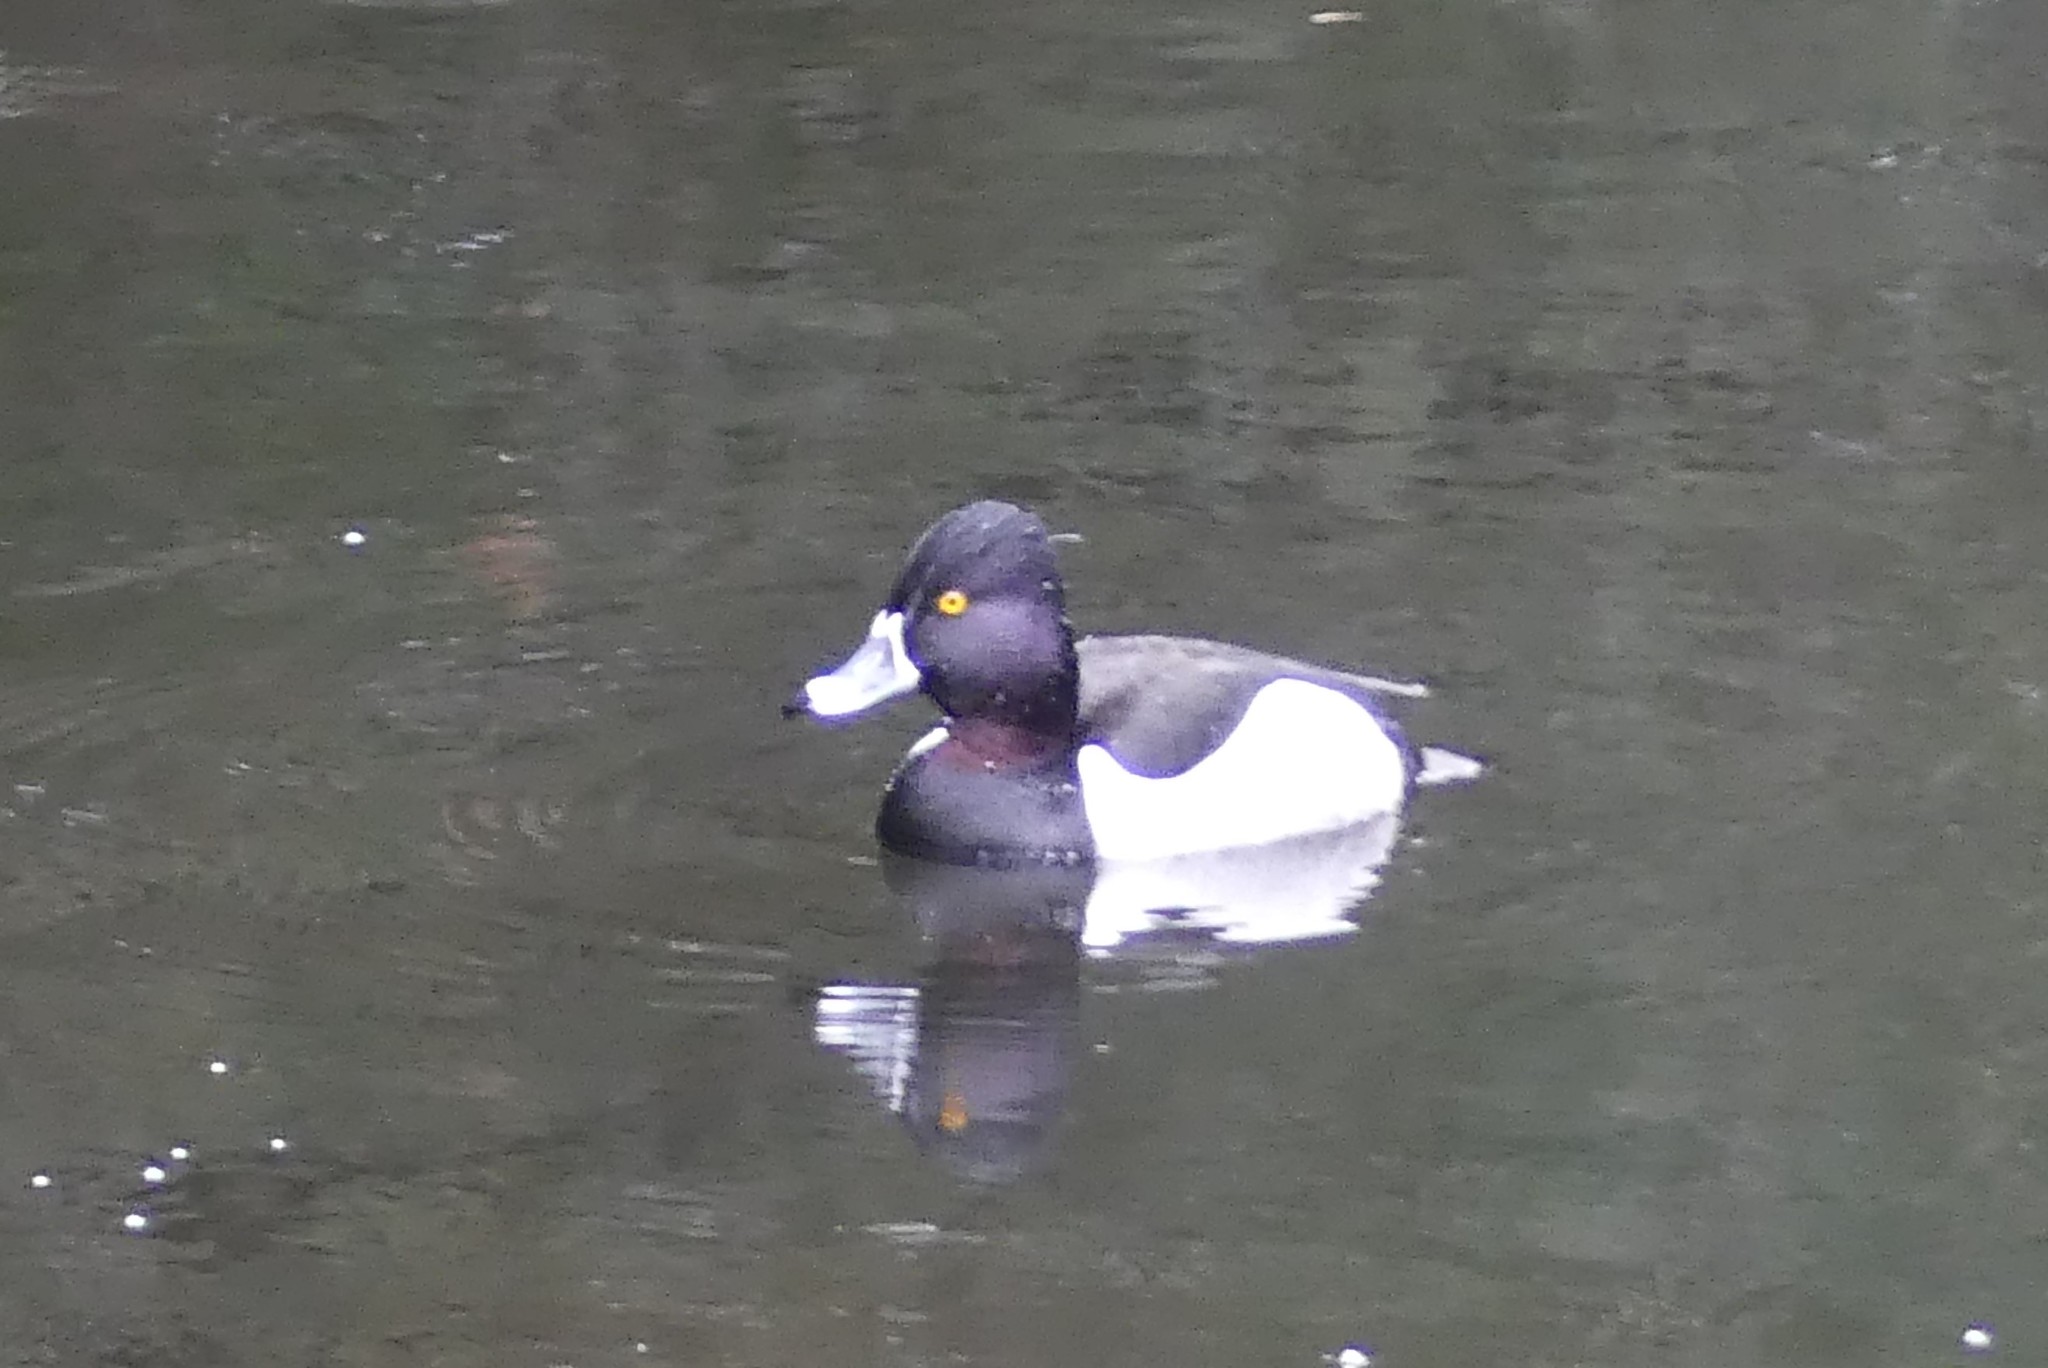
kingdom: Animalia
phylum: Chordata
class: Aves
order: Anseriformes
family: Anatidae
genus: Aythya
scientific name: Aythya collaris
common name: Ring-necked duck
